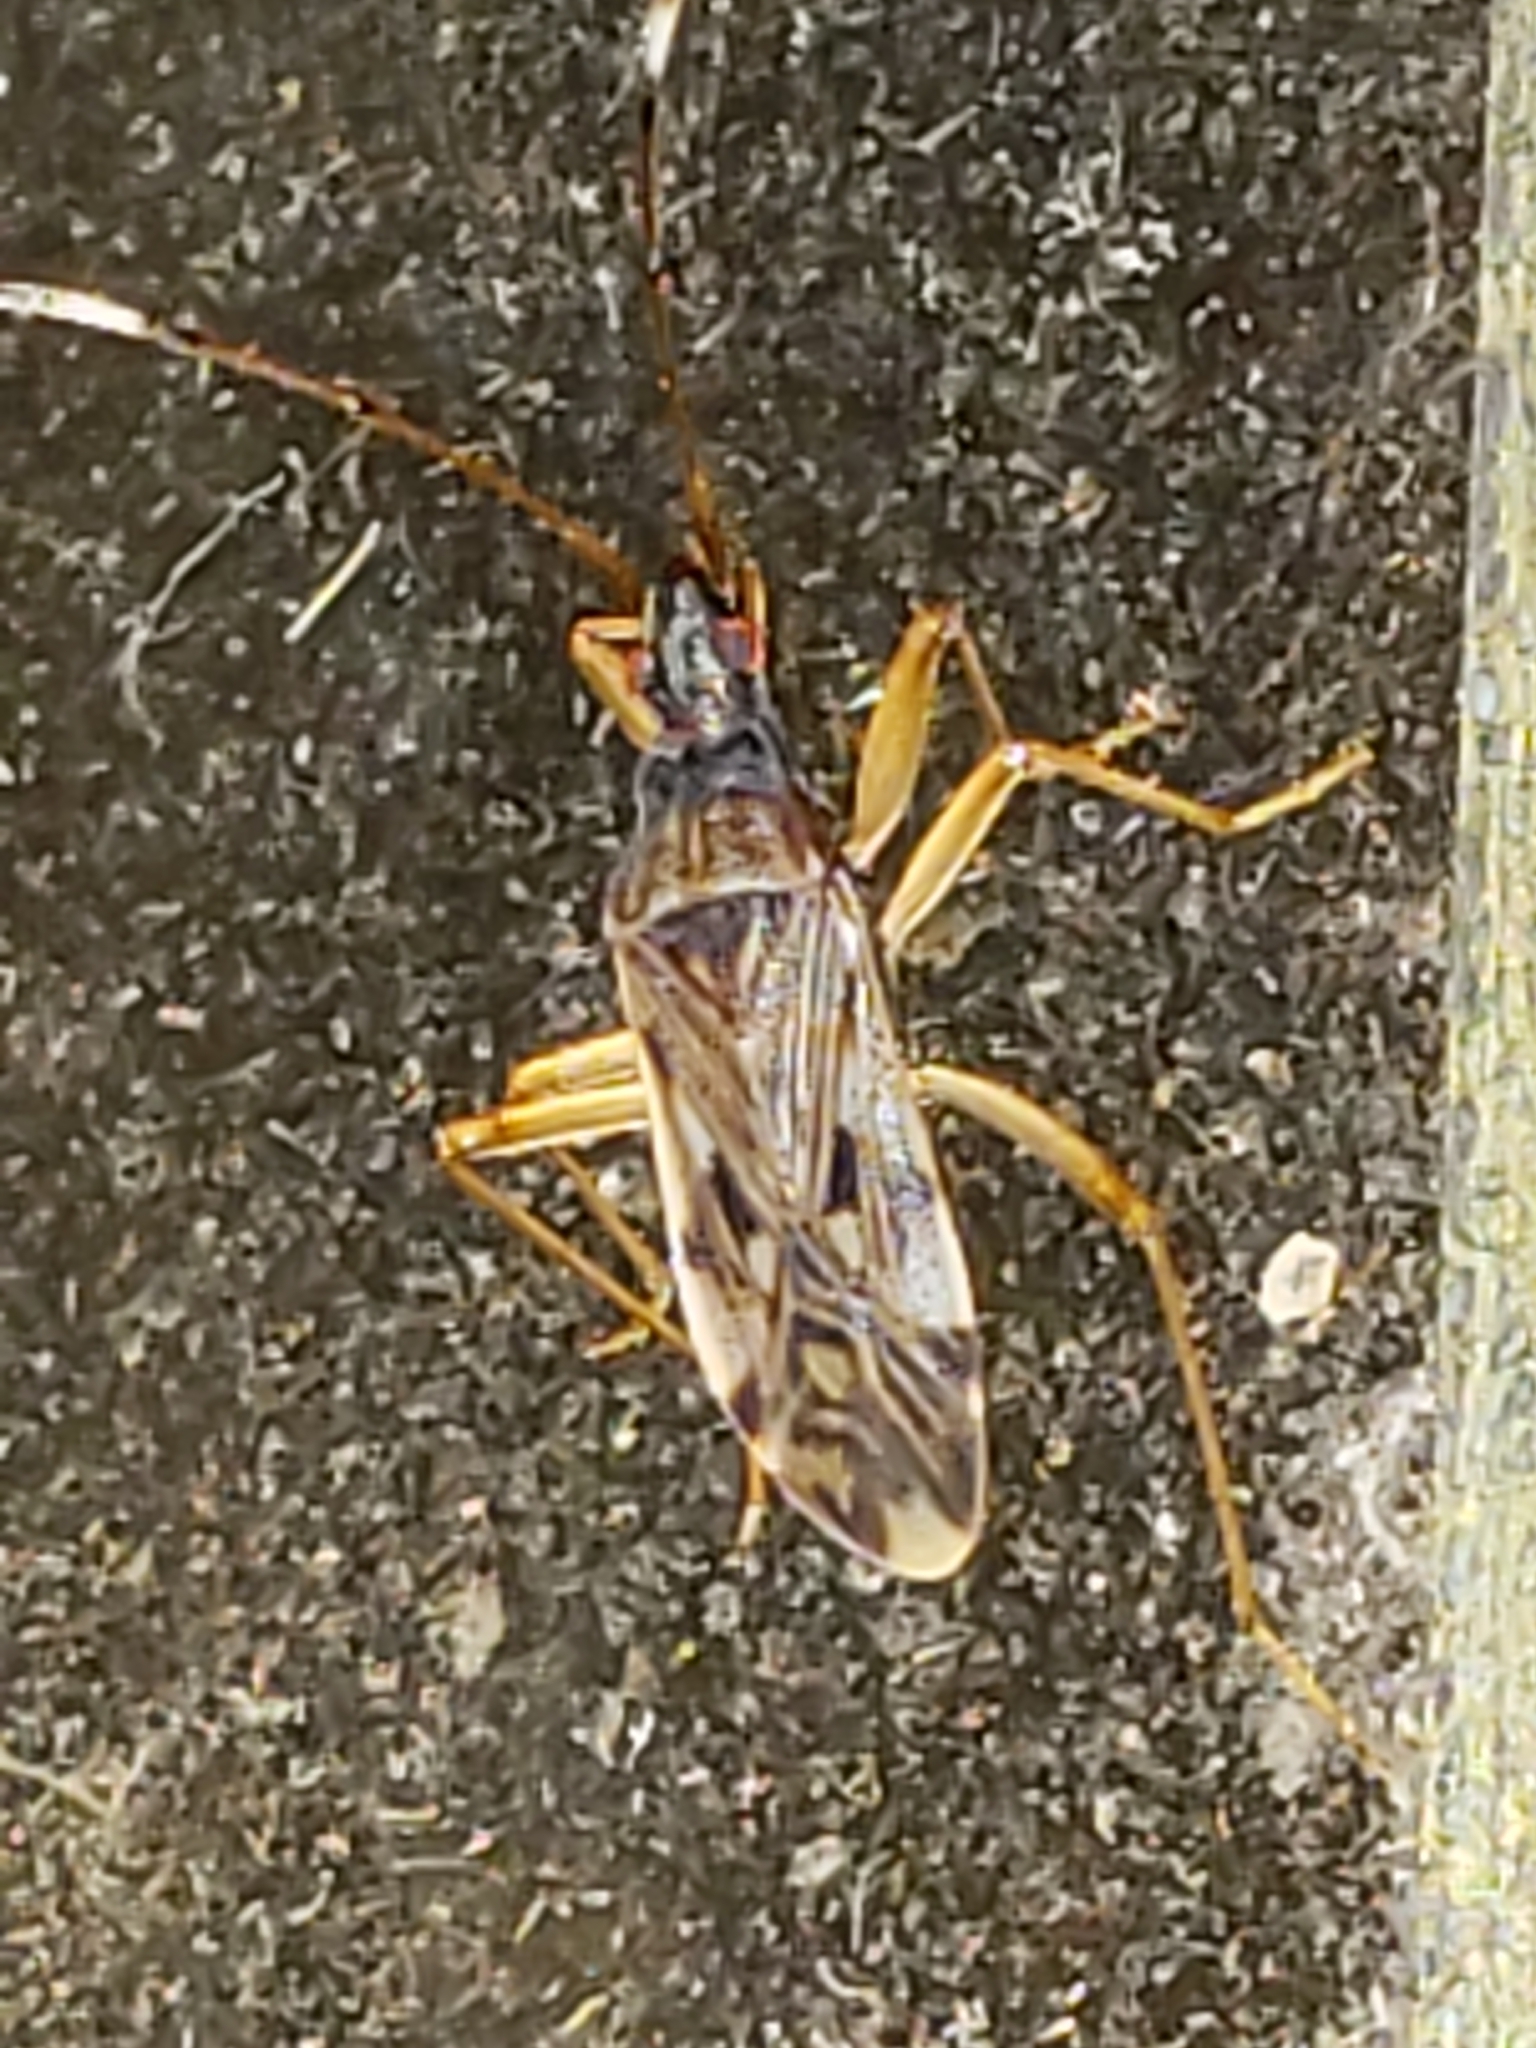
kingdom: Animalia
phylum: Arthropoda
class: Insecta
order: Hemiptera
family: Rhyparochromidae
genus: Ozophora
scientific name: Ozophora picturata
